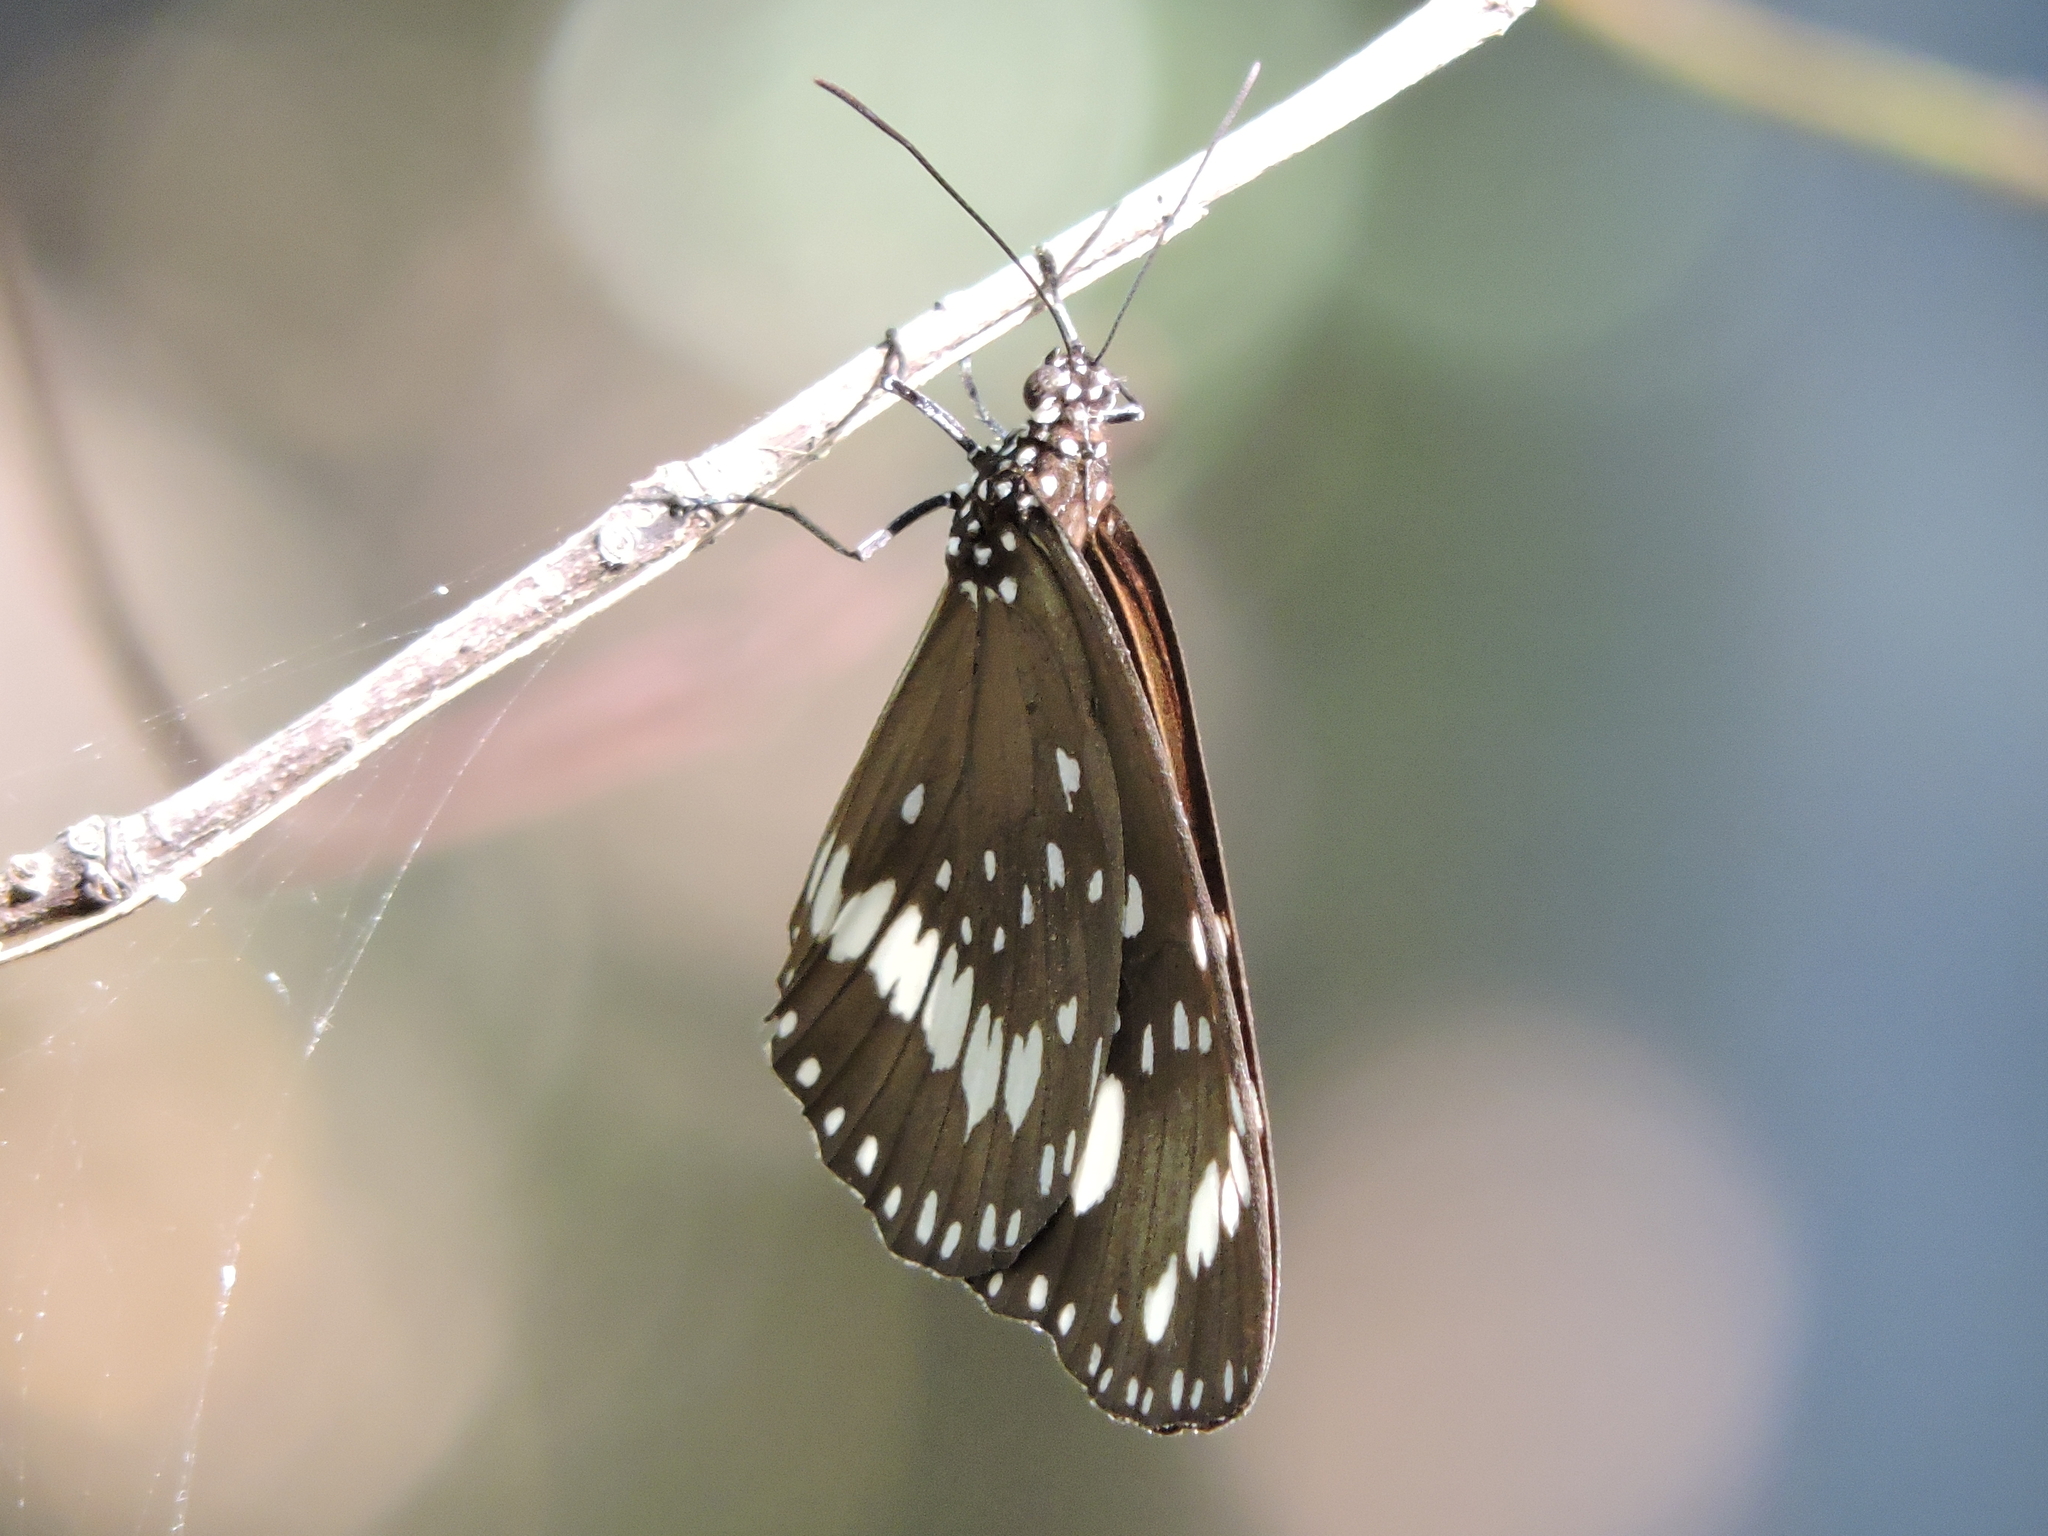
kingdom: Animalia
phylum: Arthropoda
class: Insecta
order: Lepidoptera
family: Nymphalidae
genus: Euploea
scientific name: Euploea core
